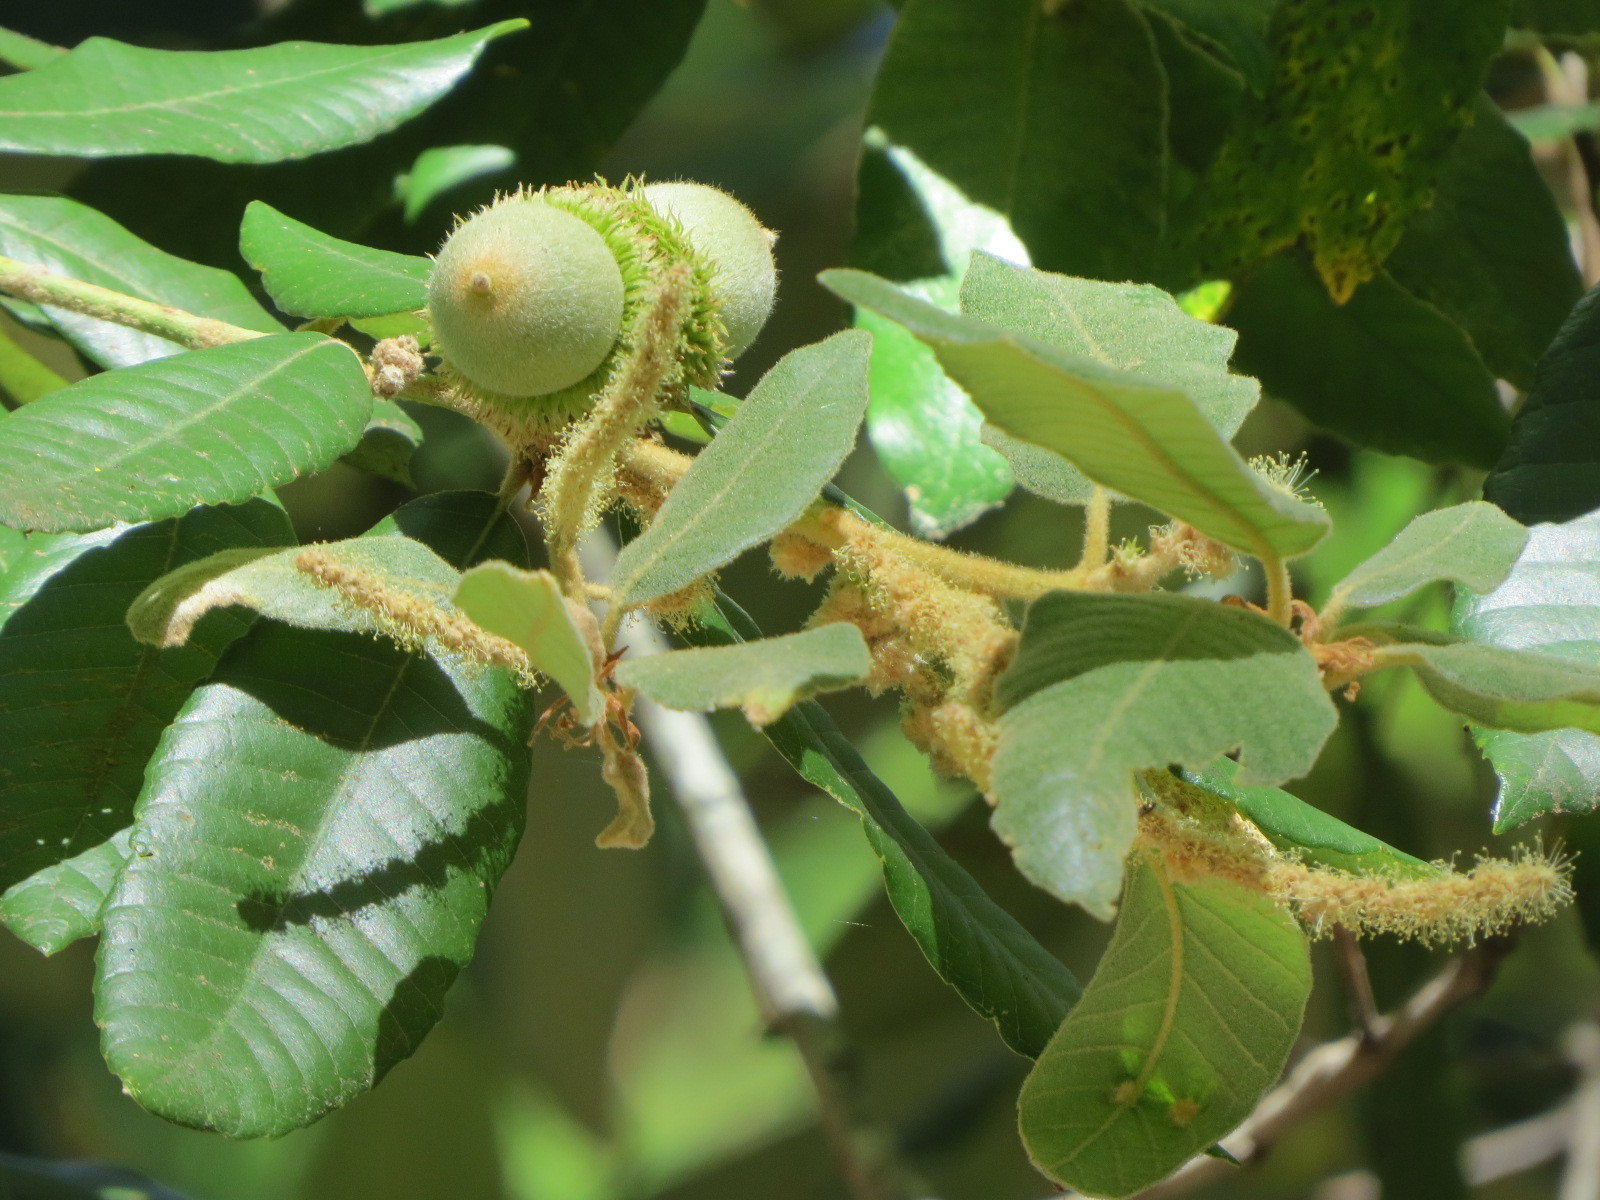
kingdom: Plantae
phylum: Tracheophyta
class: Magnoliopsida
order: Fagales
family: Fagaceae
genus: Notholithocarpus
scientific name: Notholithocarpus densiflorus
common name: Tan bark oak
